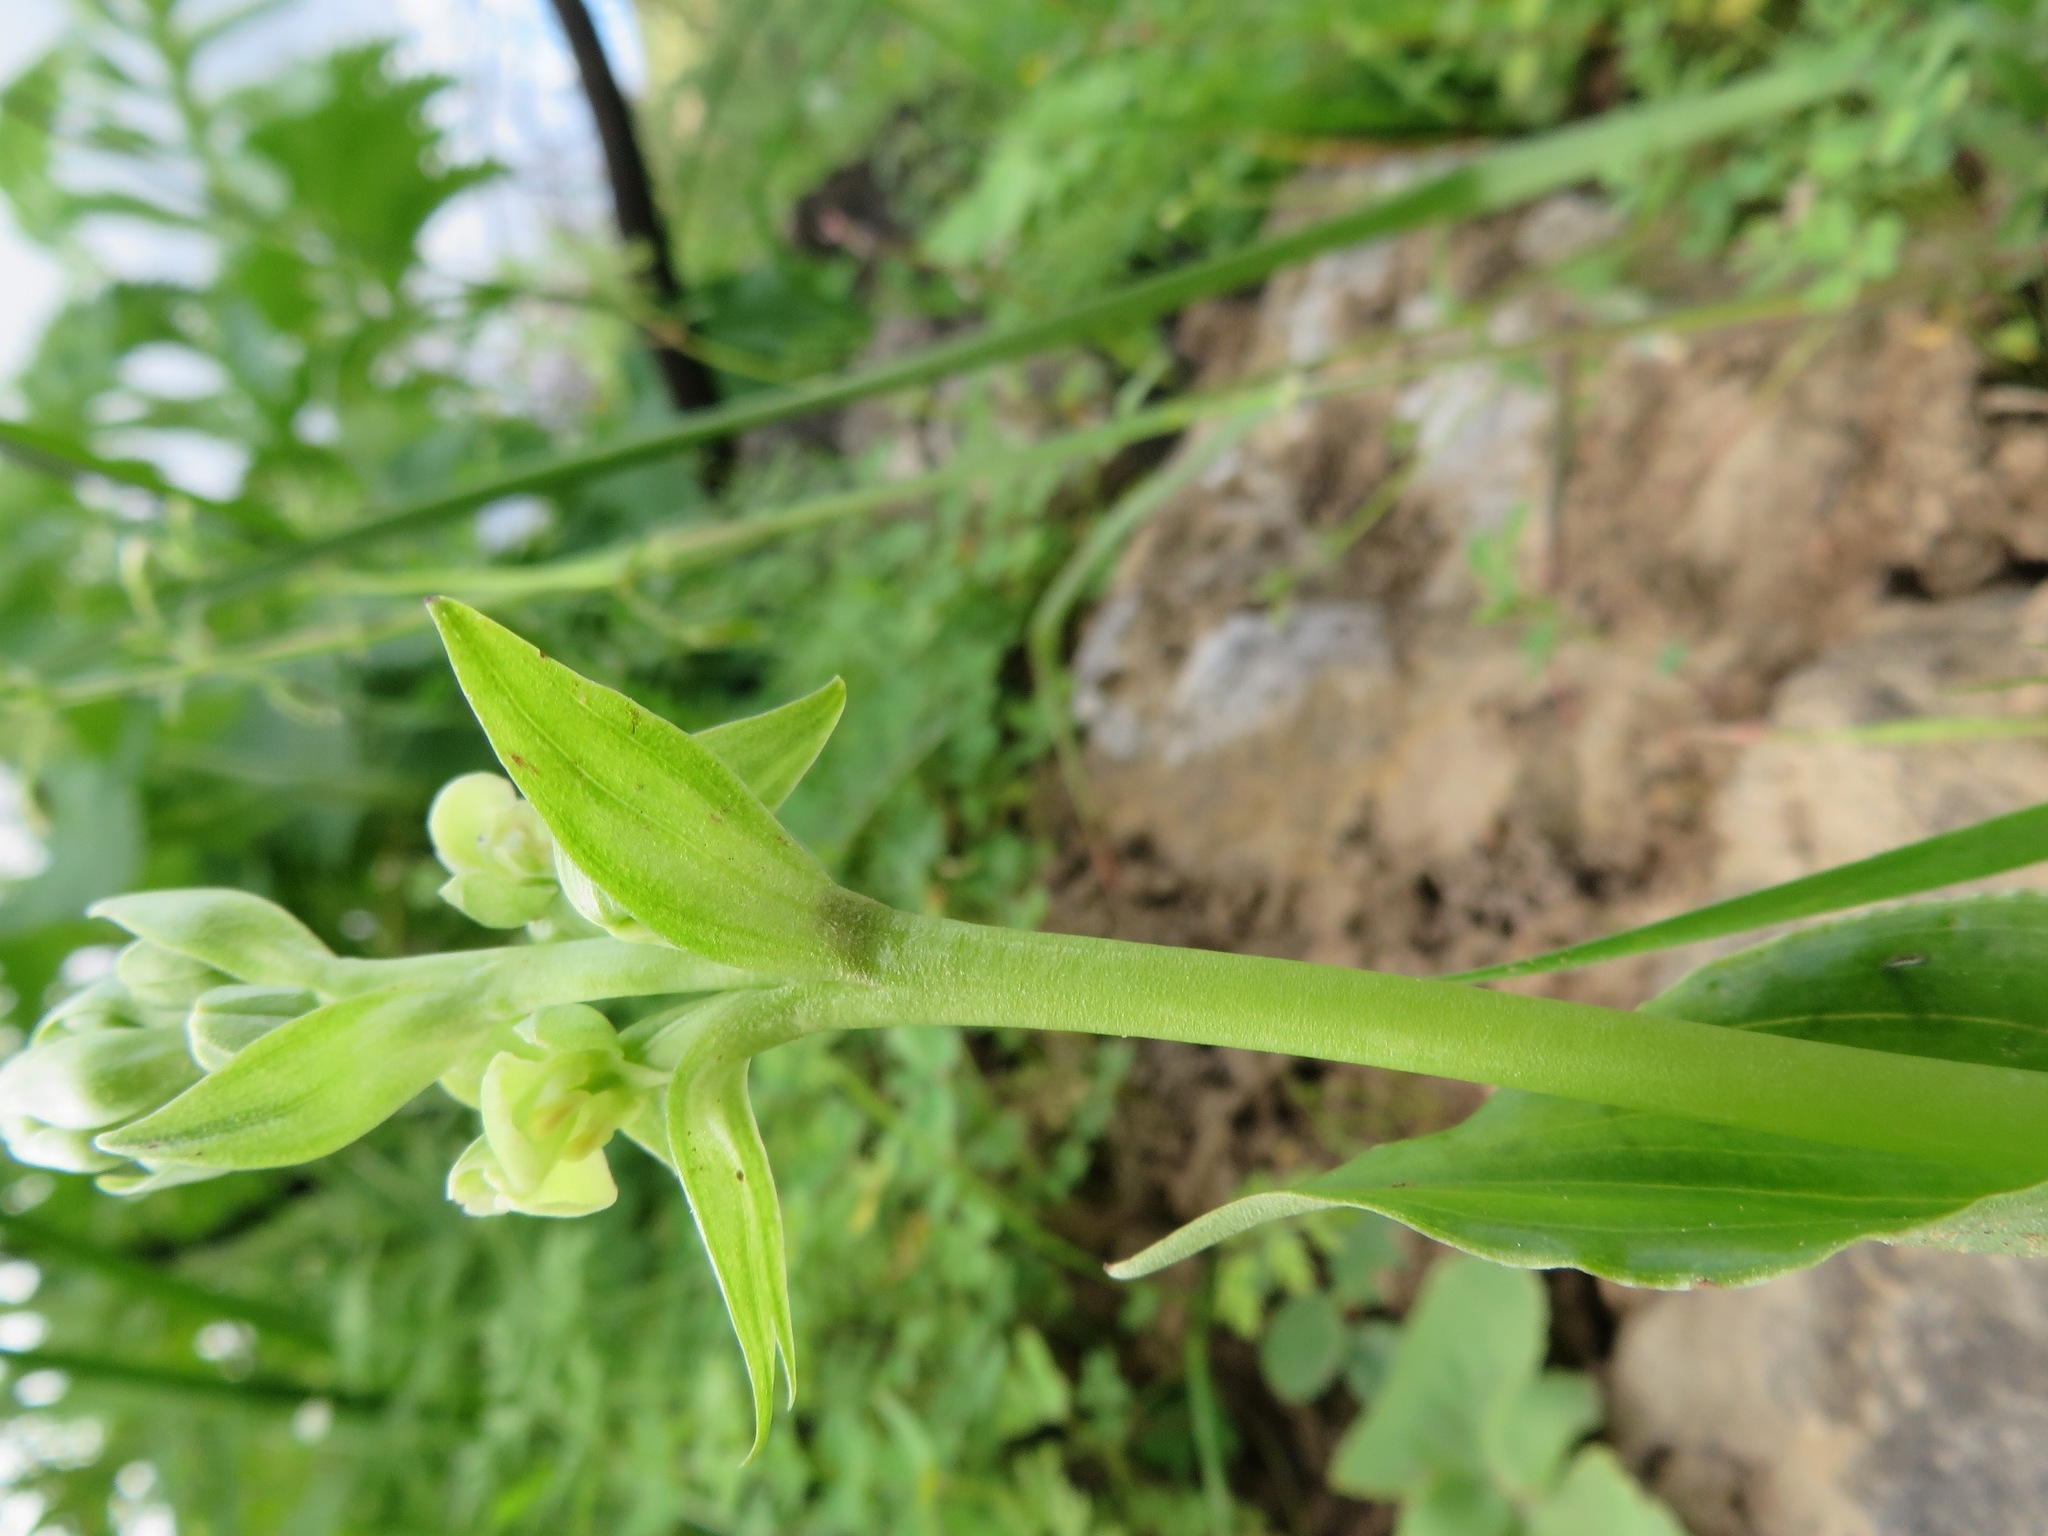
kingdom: Plantae
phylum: Tracheophyta
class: Liliopsida
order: Asparagales
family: Orchidaceae
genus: Pterygodium
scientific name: Pterygodium volucris
